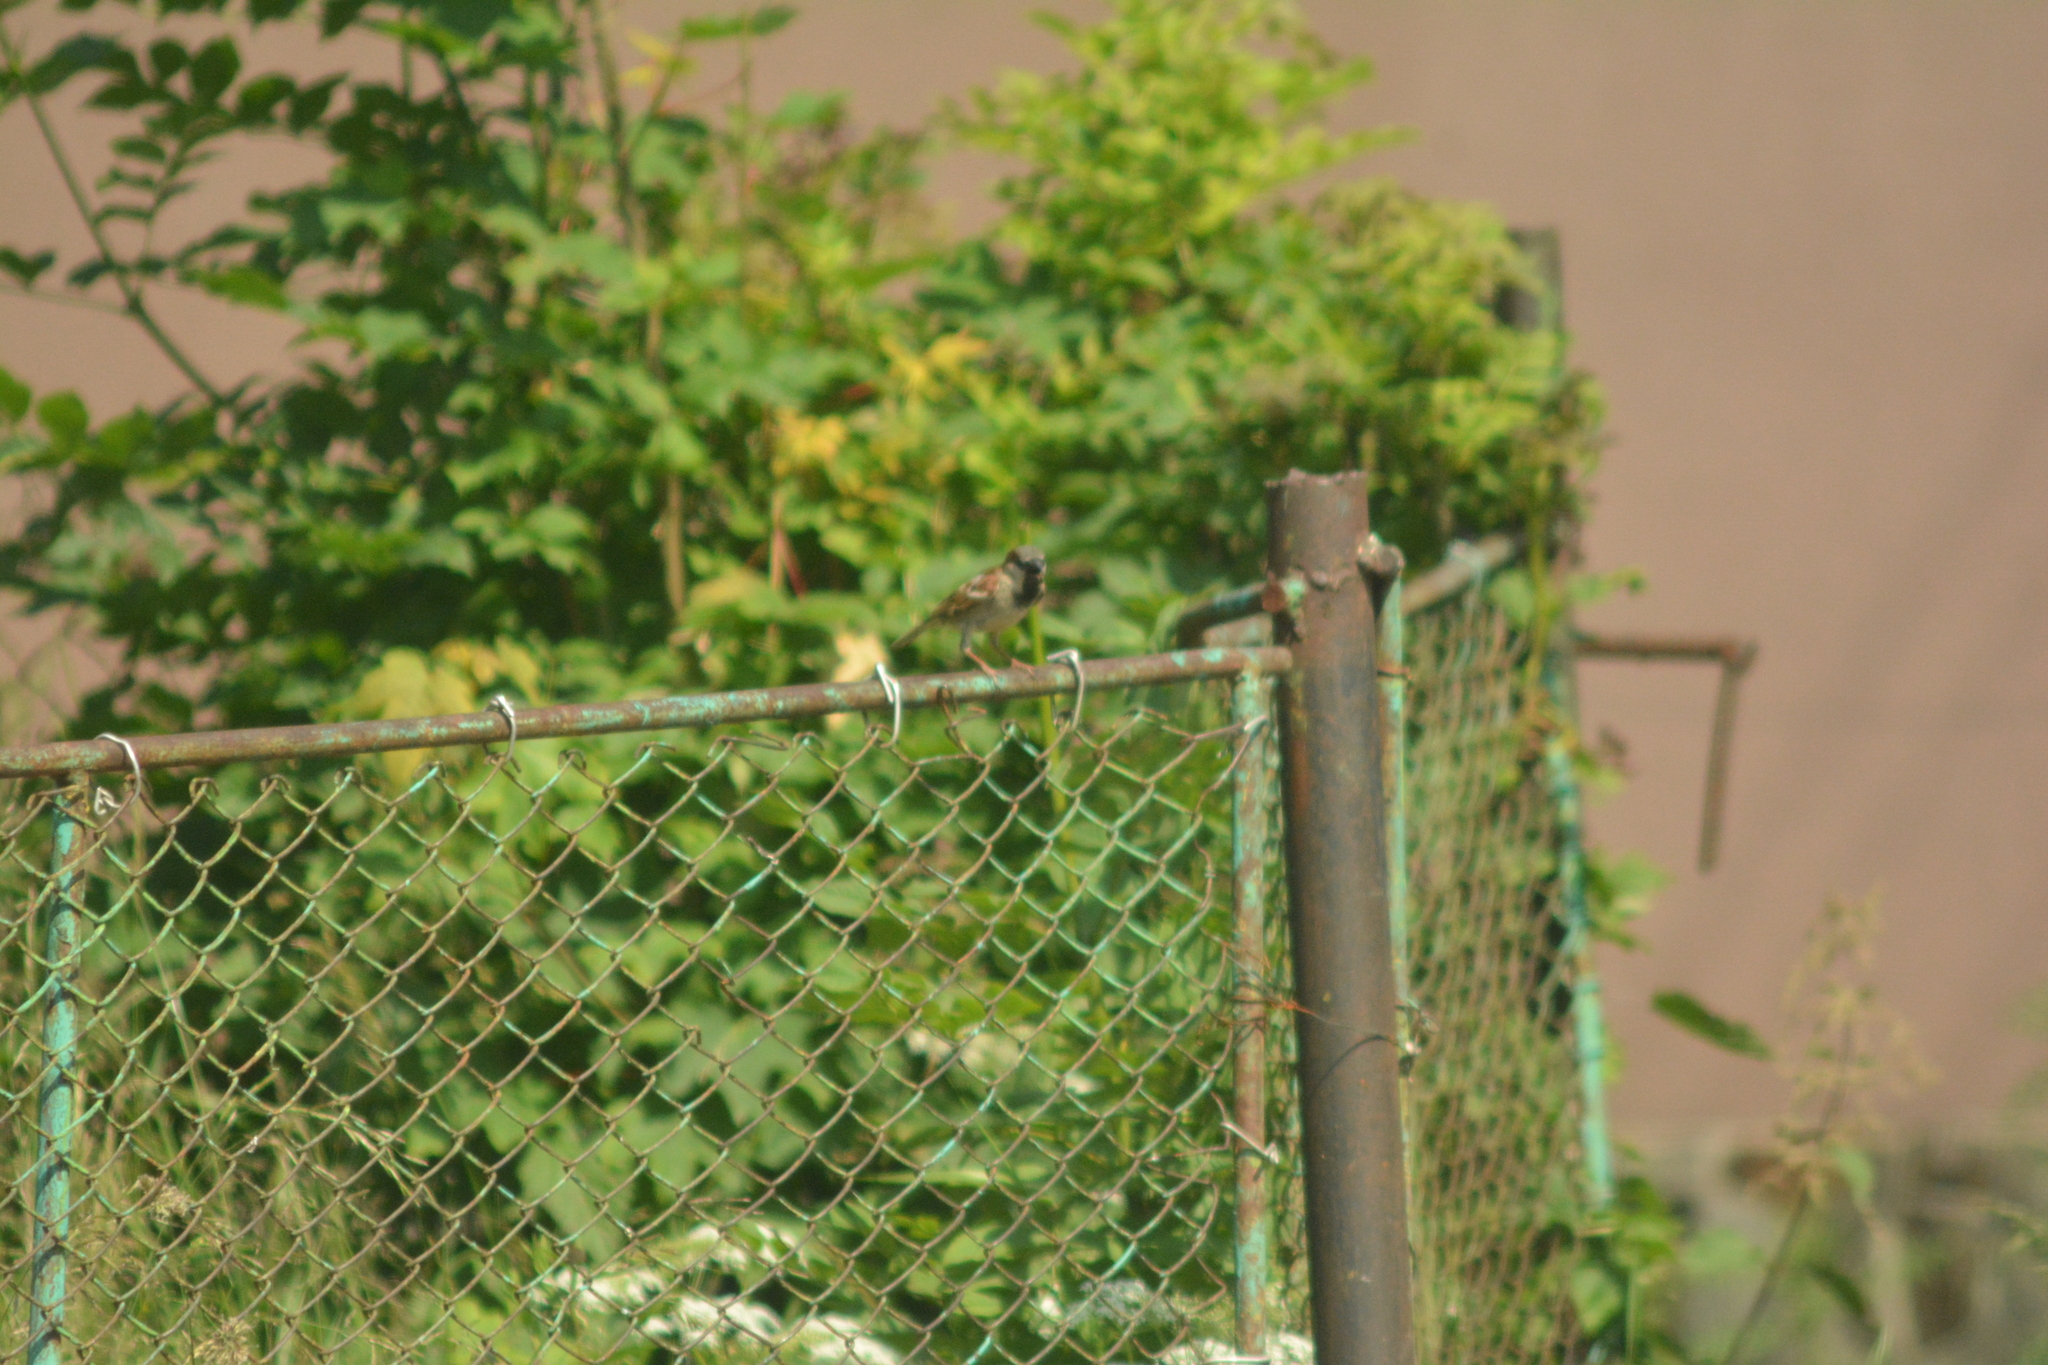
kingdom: Animalia
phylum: Chordata
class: Aves
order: Passeriformes
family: Passeridae
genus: Passer
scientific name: Passer domesticus
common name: House sparrow
